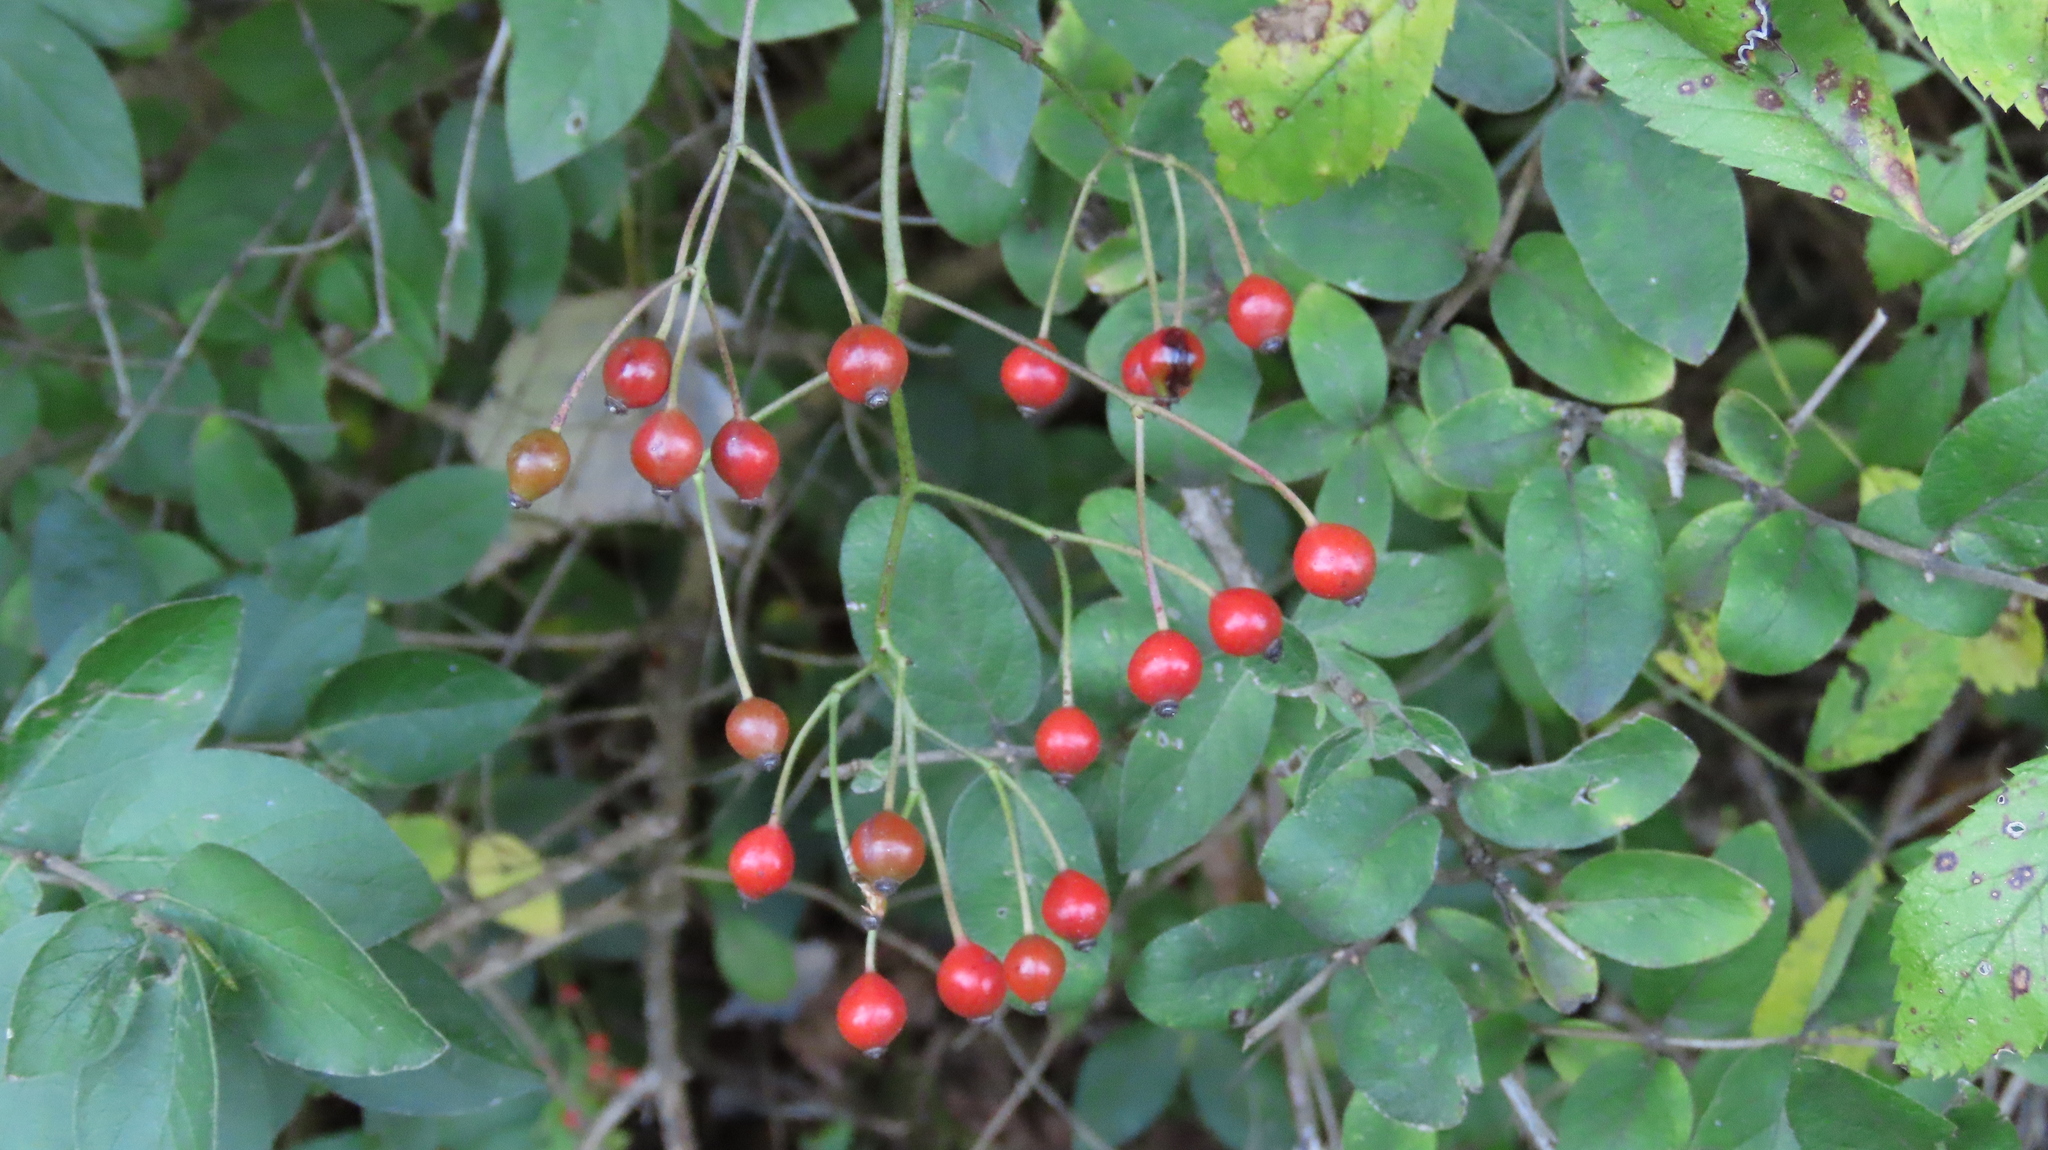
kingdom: Plantae
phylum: Tracheophyta
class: Magnoliopsida
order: Rosales
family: Rosaceae
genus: Rosa
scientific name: Rosa multiflora
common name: Multiflora rose
